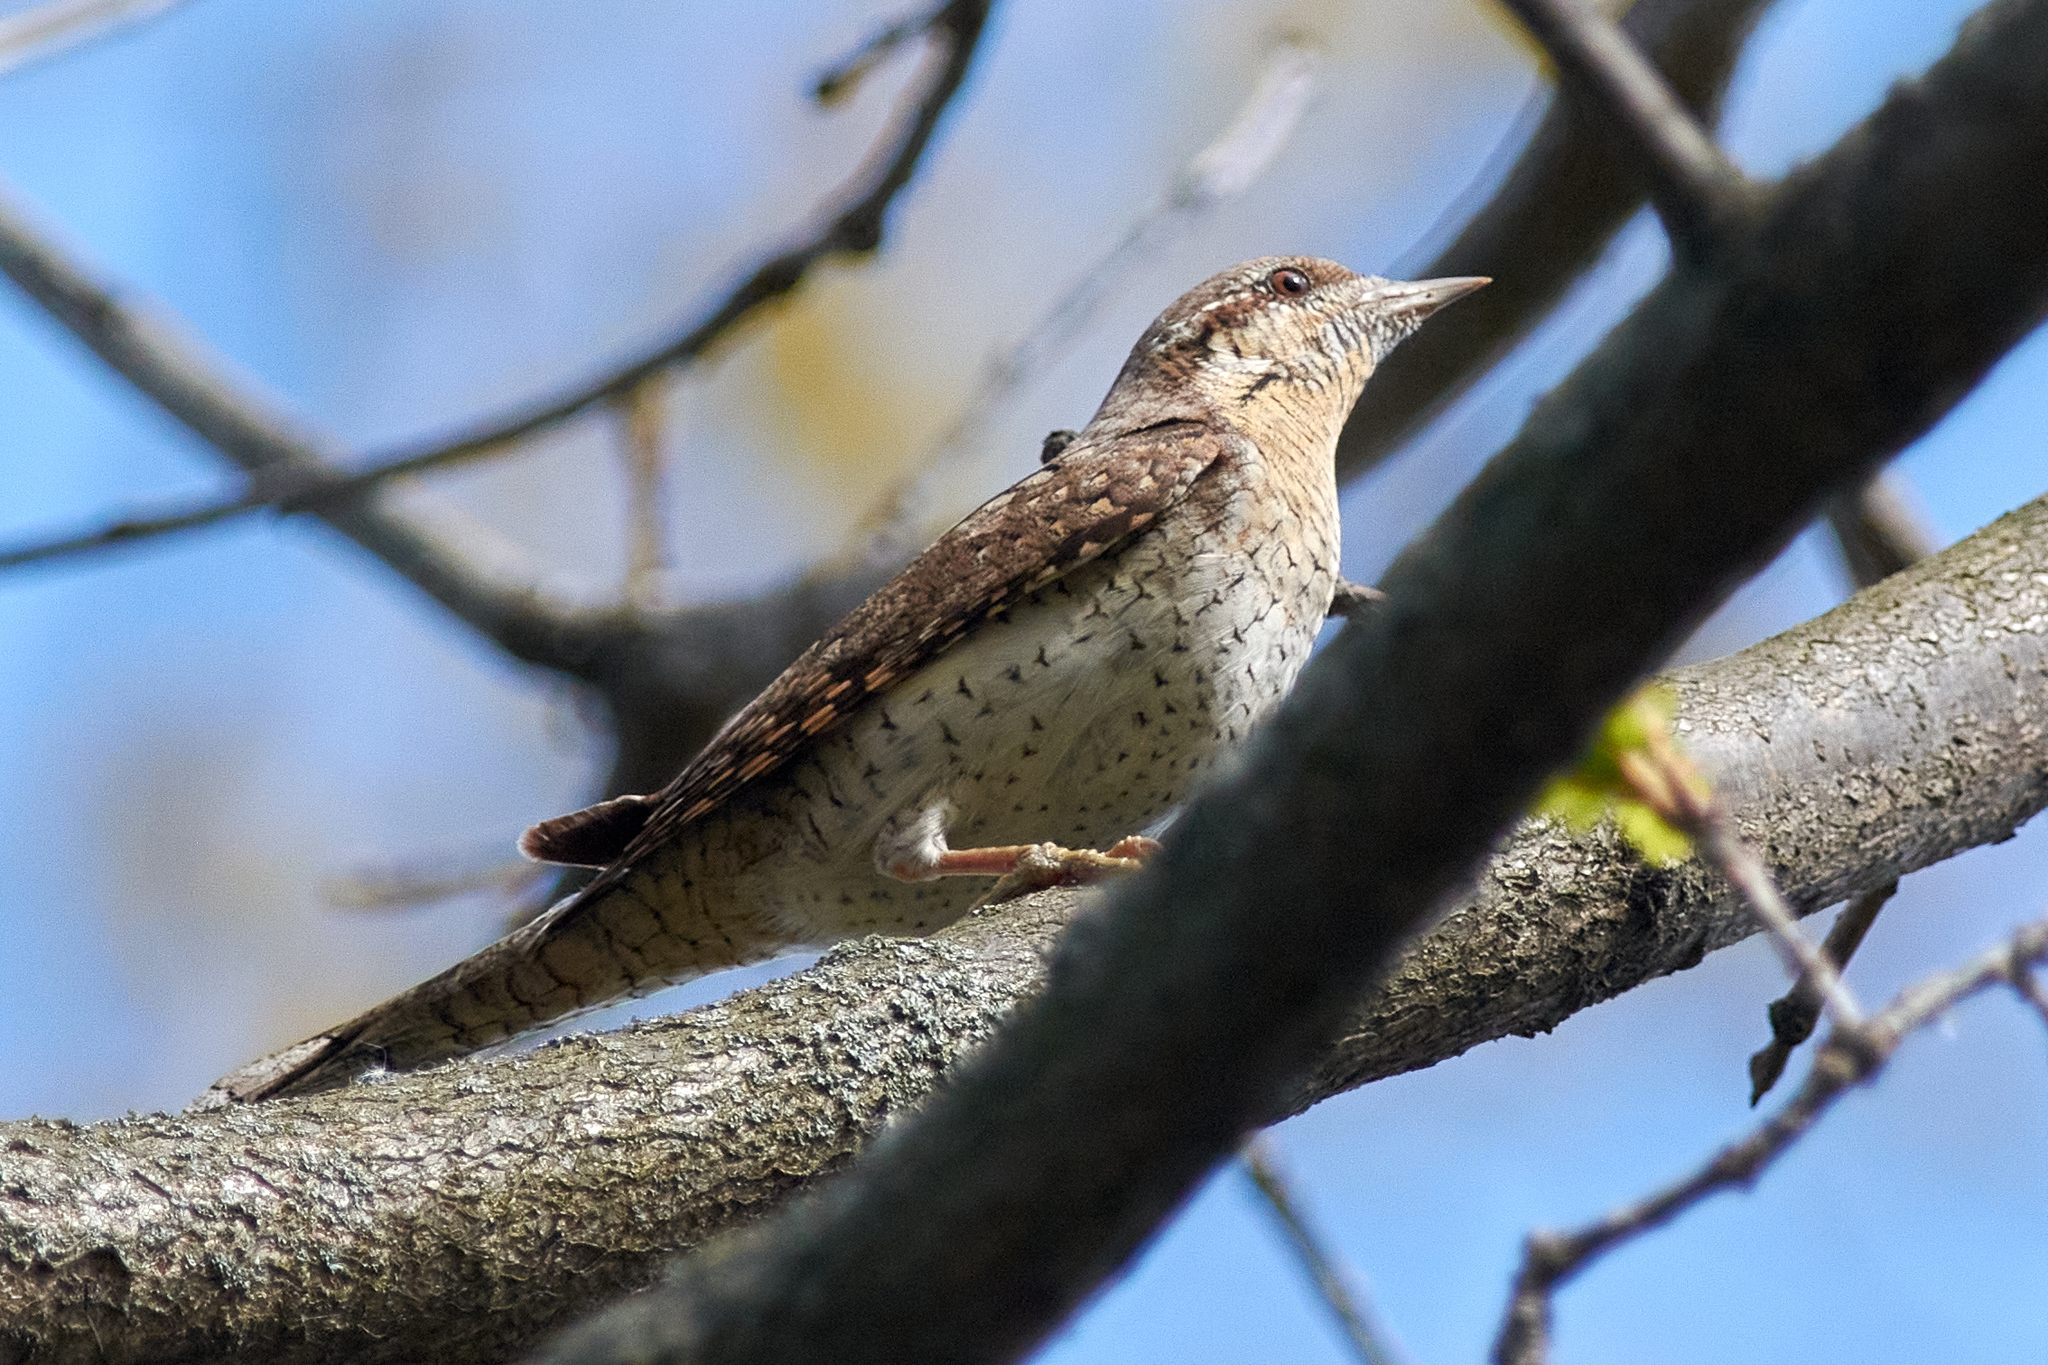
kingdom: Animalia
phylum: Chordata
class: Aves
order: Piciformes
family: Picidae
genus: Jynx
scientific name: Jynx torquilla
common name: Eurasian wryneck
